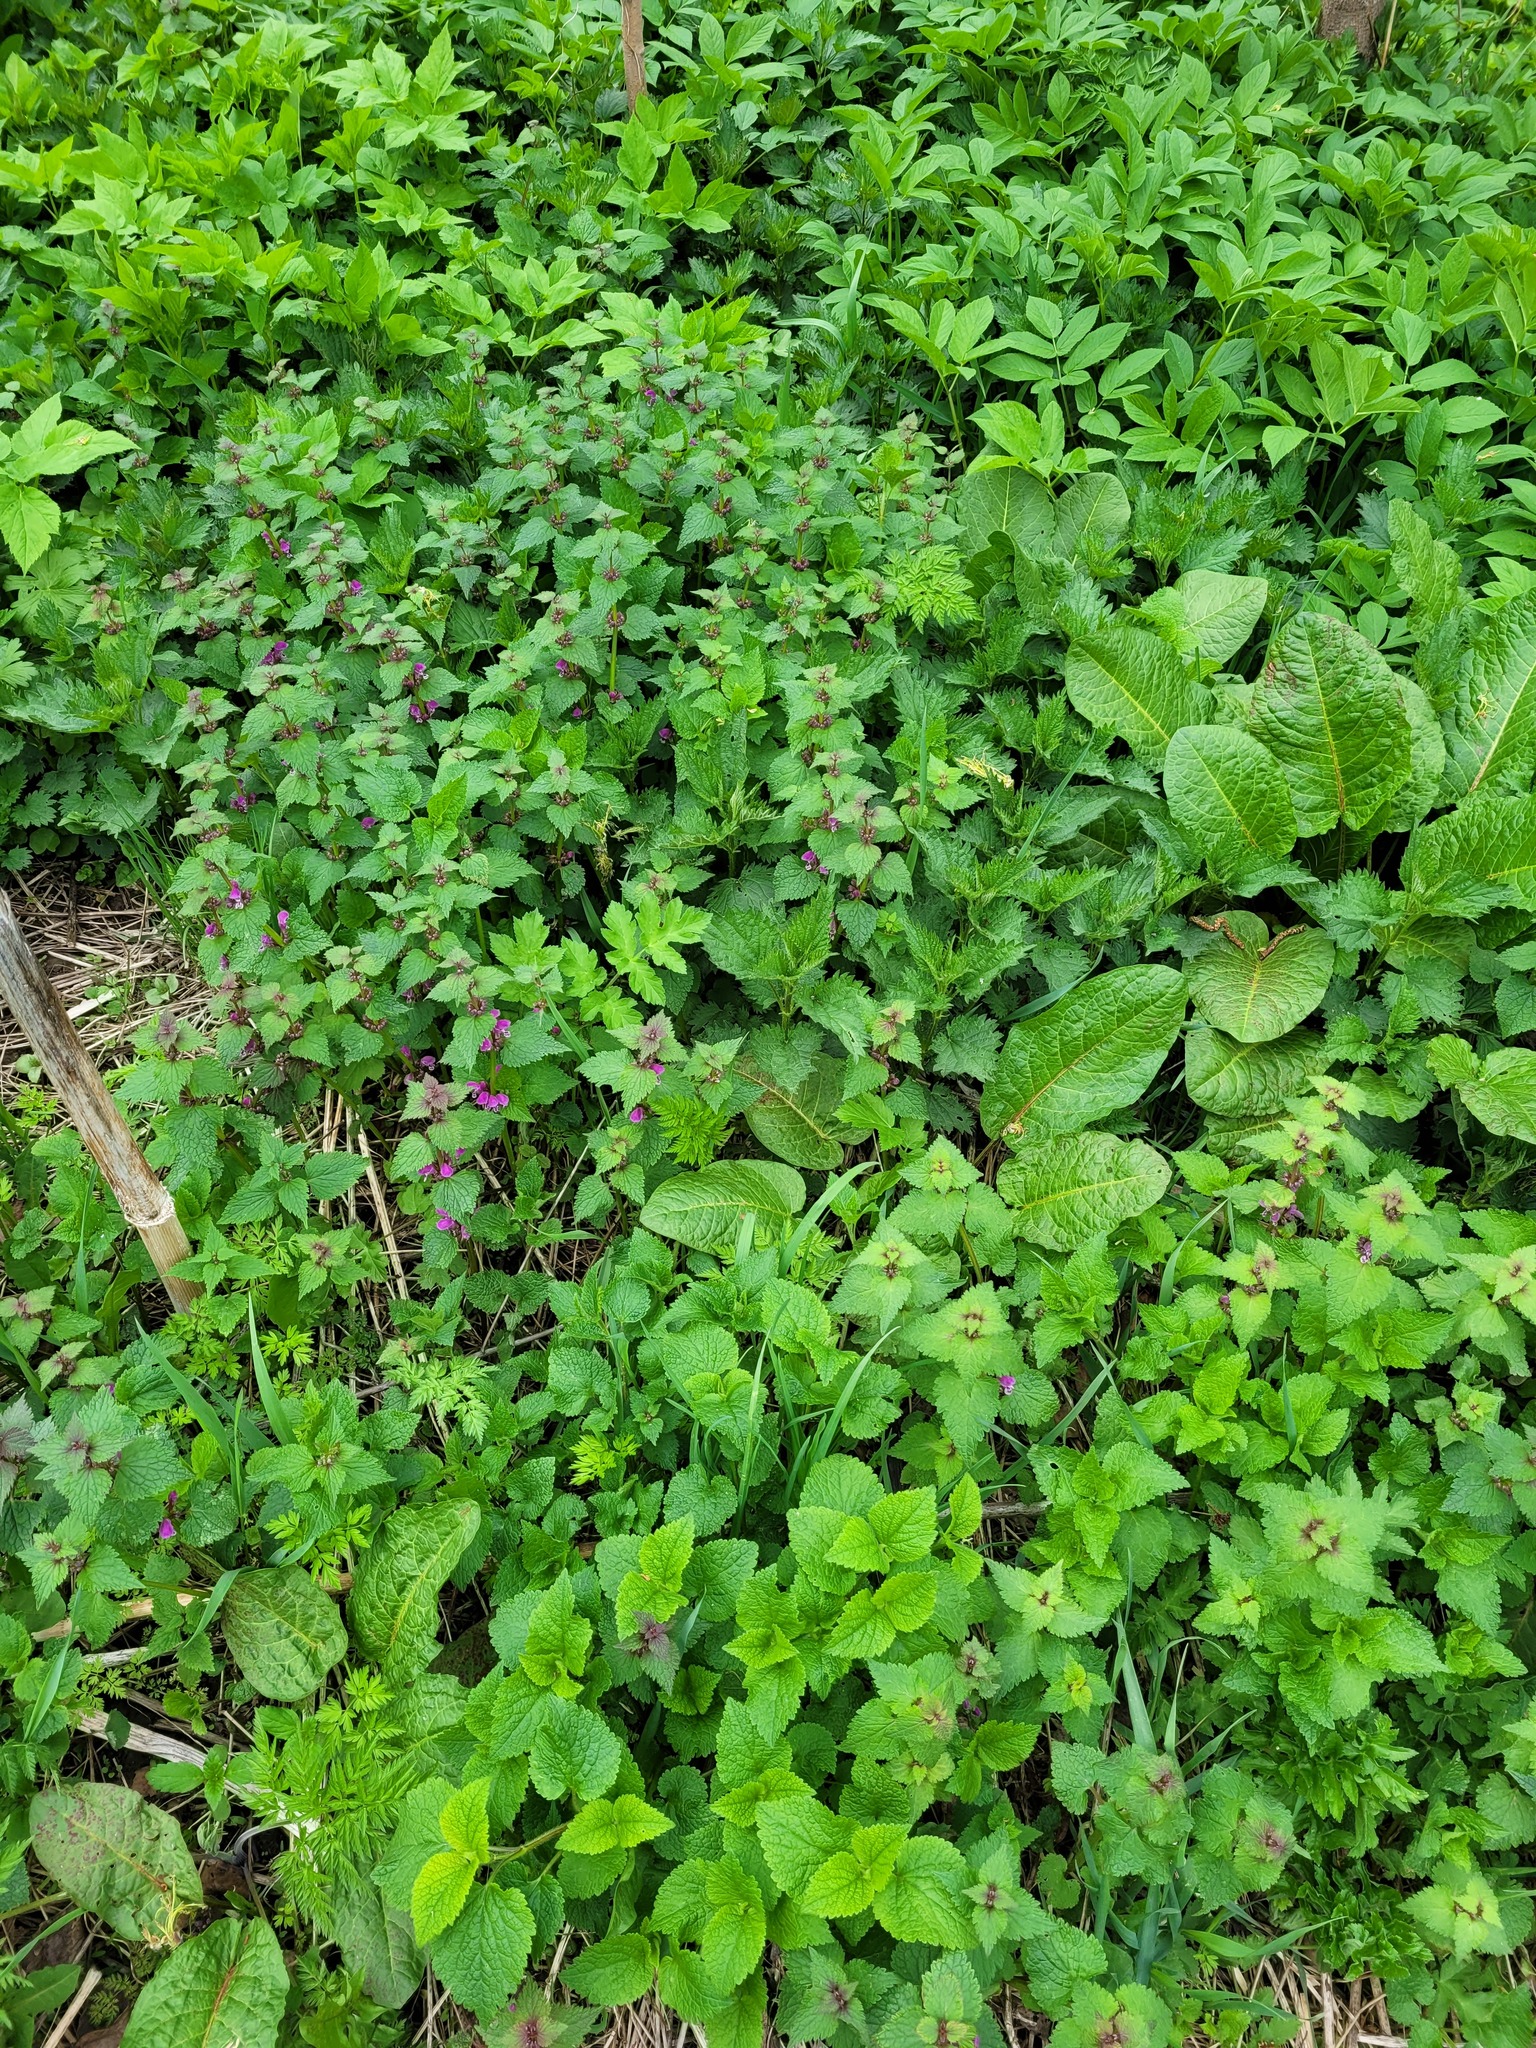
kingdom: Plantae
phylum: Tracheophyta
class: Magnoliopsida
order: Lamiales
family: Lamiaceae
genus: Lamium
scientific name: Lamium maculatum
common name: Spotted dead-nettle
